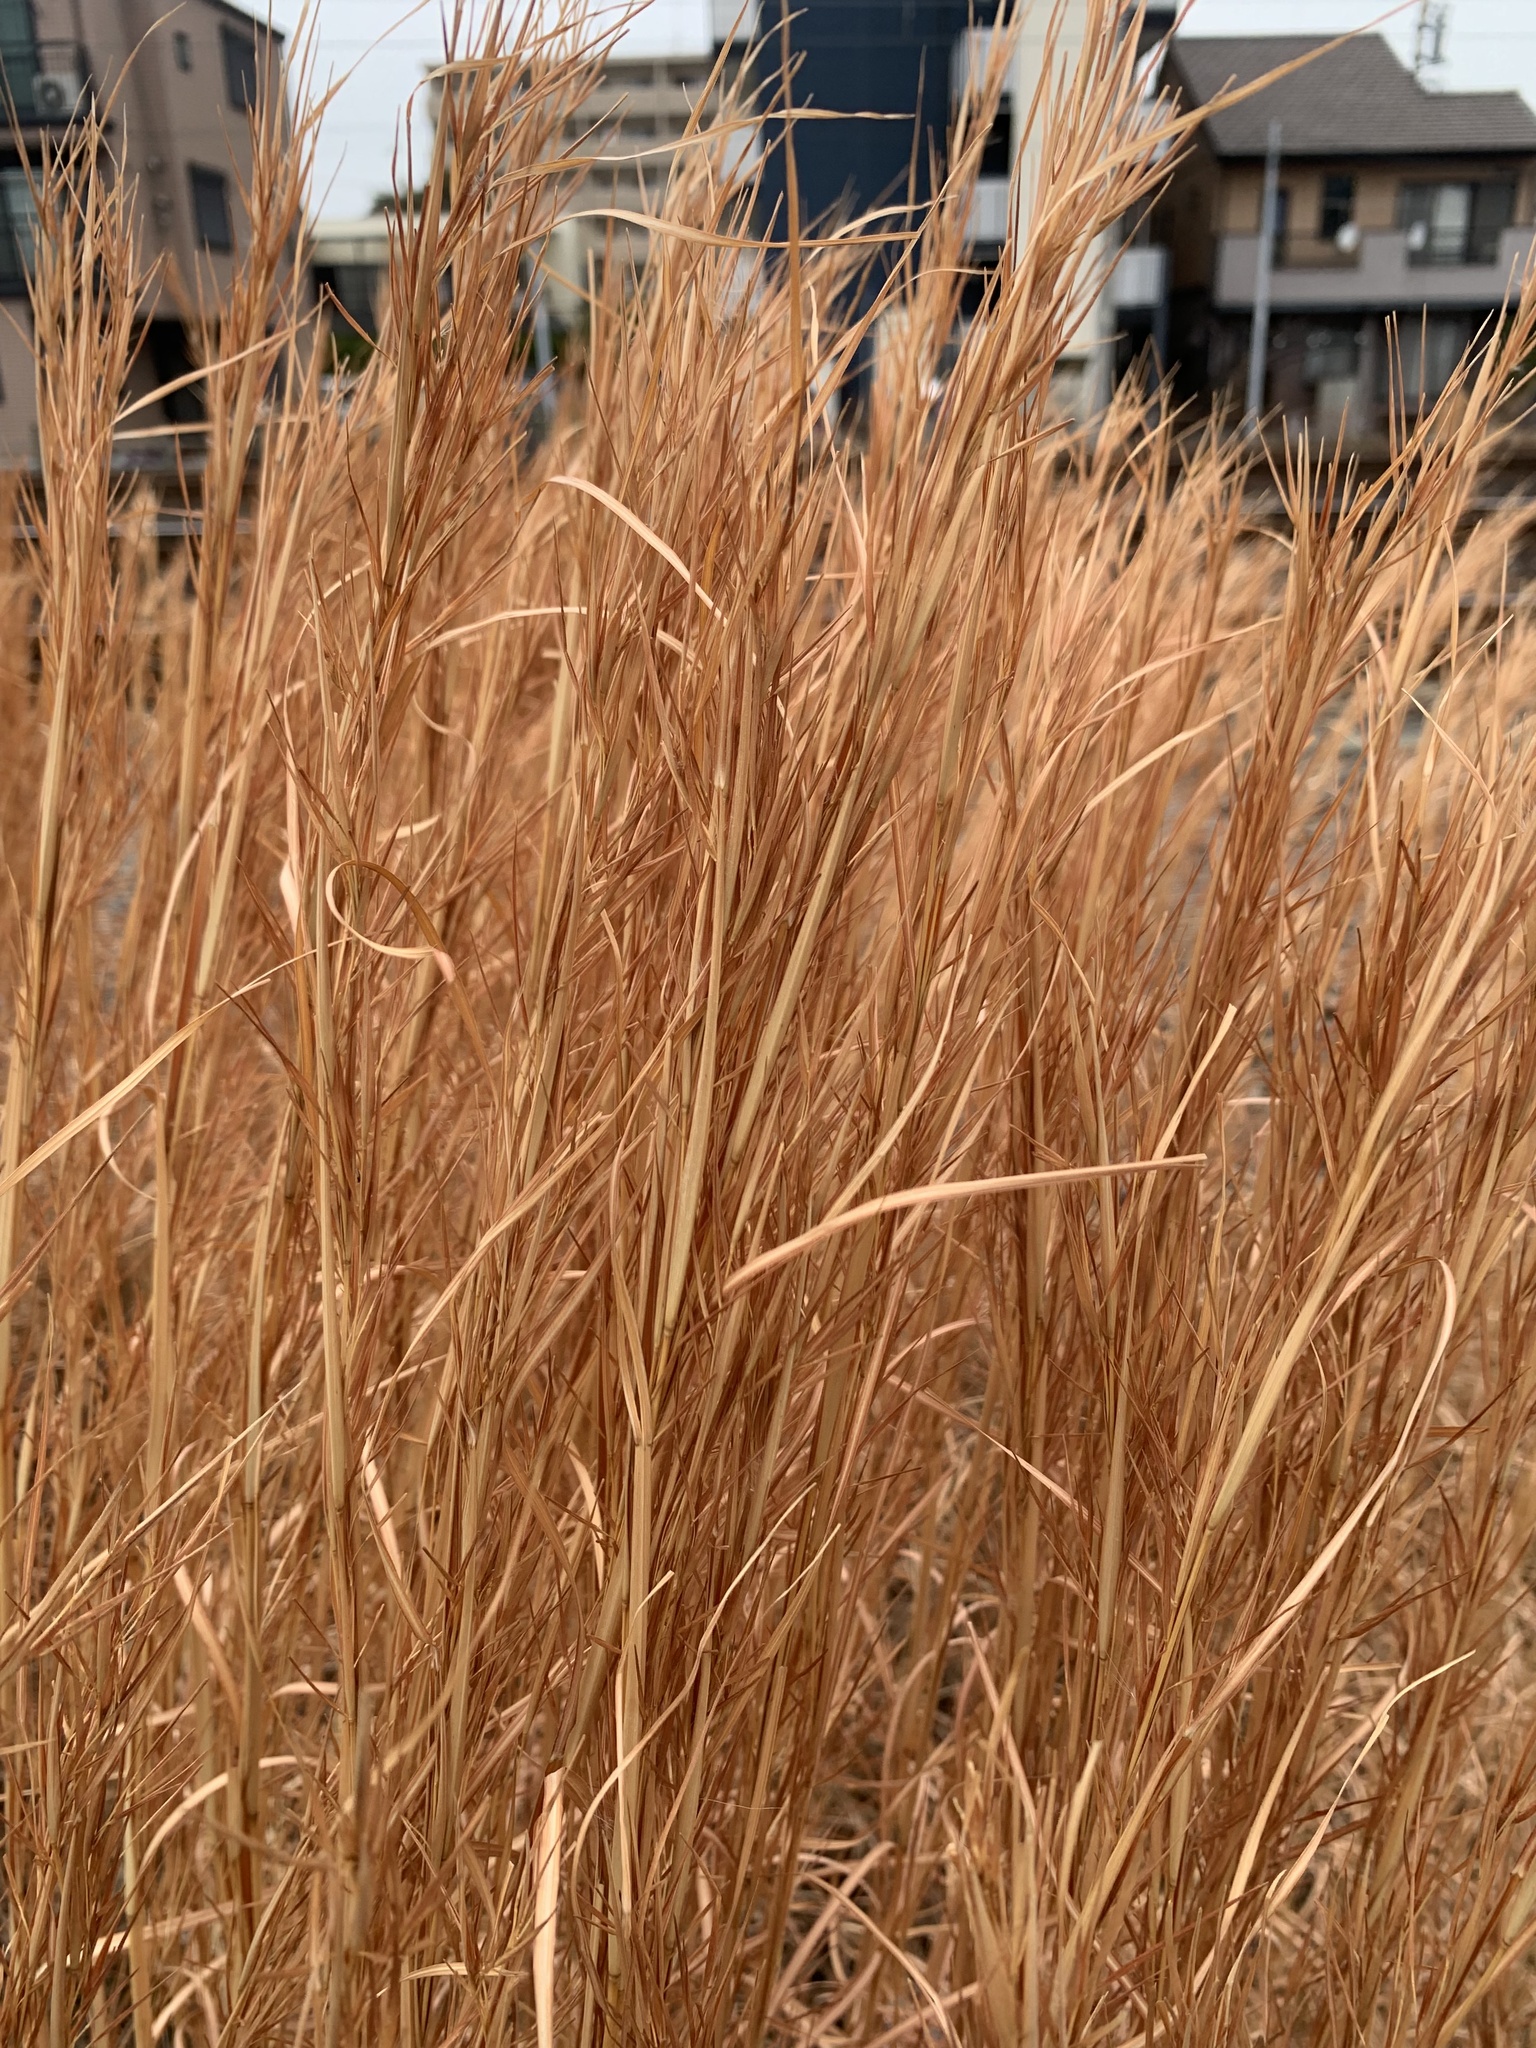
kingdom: Plantae
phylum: Tracheophyta
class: Liliopsida
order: Poales
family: Poaceae
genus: Andropogon
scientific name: Andropogon virginicus
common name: Broomsedge bluestem
